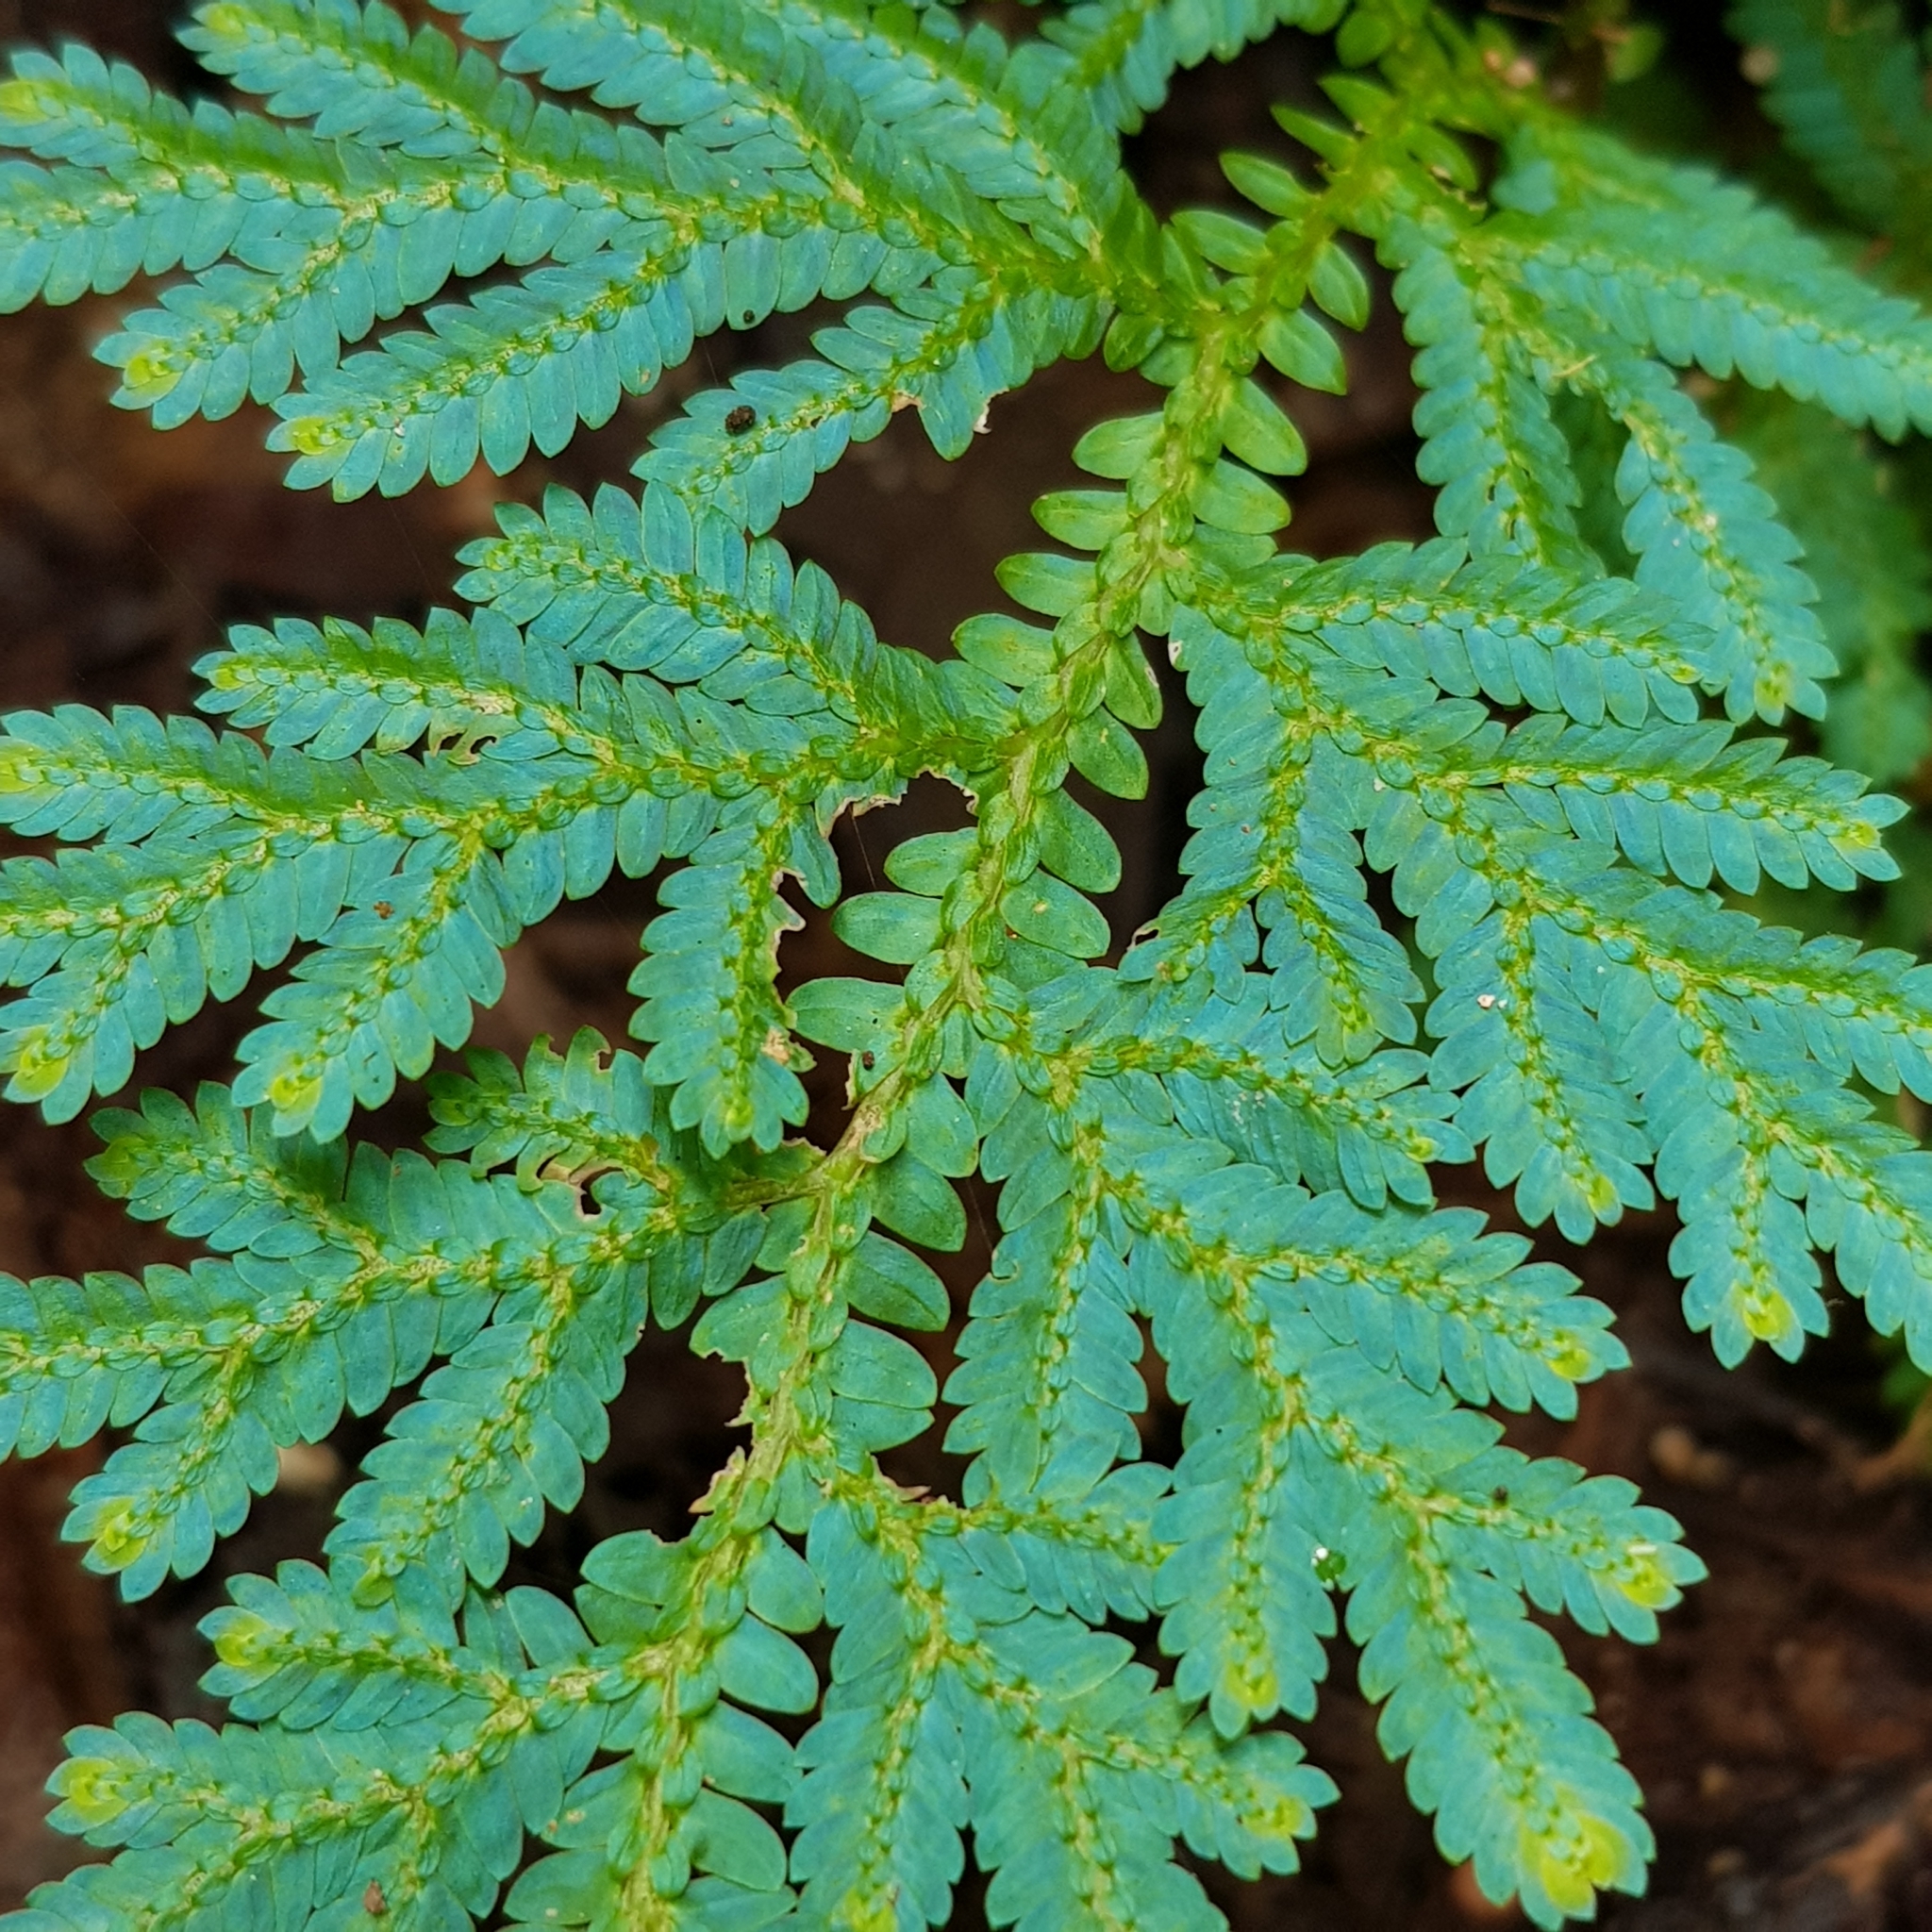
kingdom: Plantae
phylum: Tracheophyta
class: Lycopodiopsida
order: Selaginellales
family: Selaginellaceae
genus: Selaginella
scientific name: Selaginella willdenowii
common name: Willdenow's spikemoss
